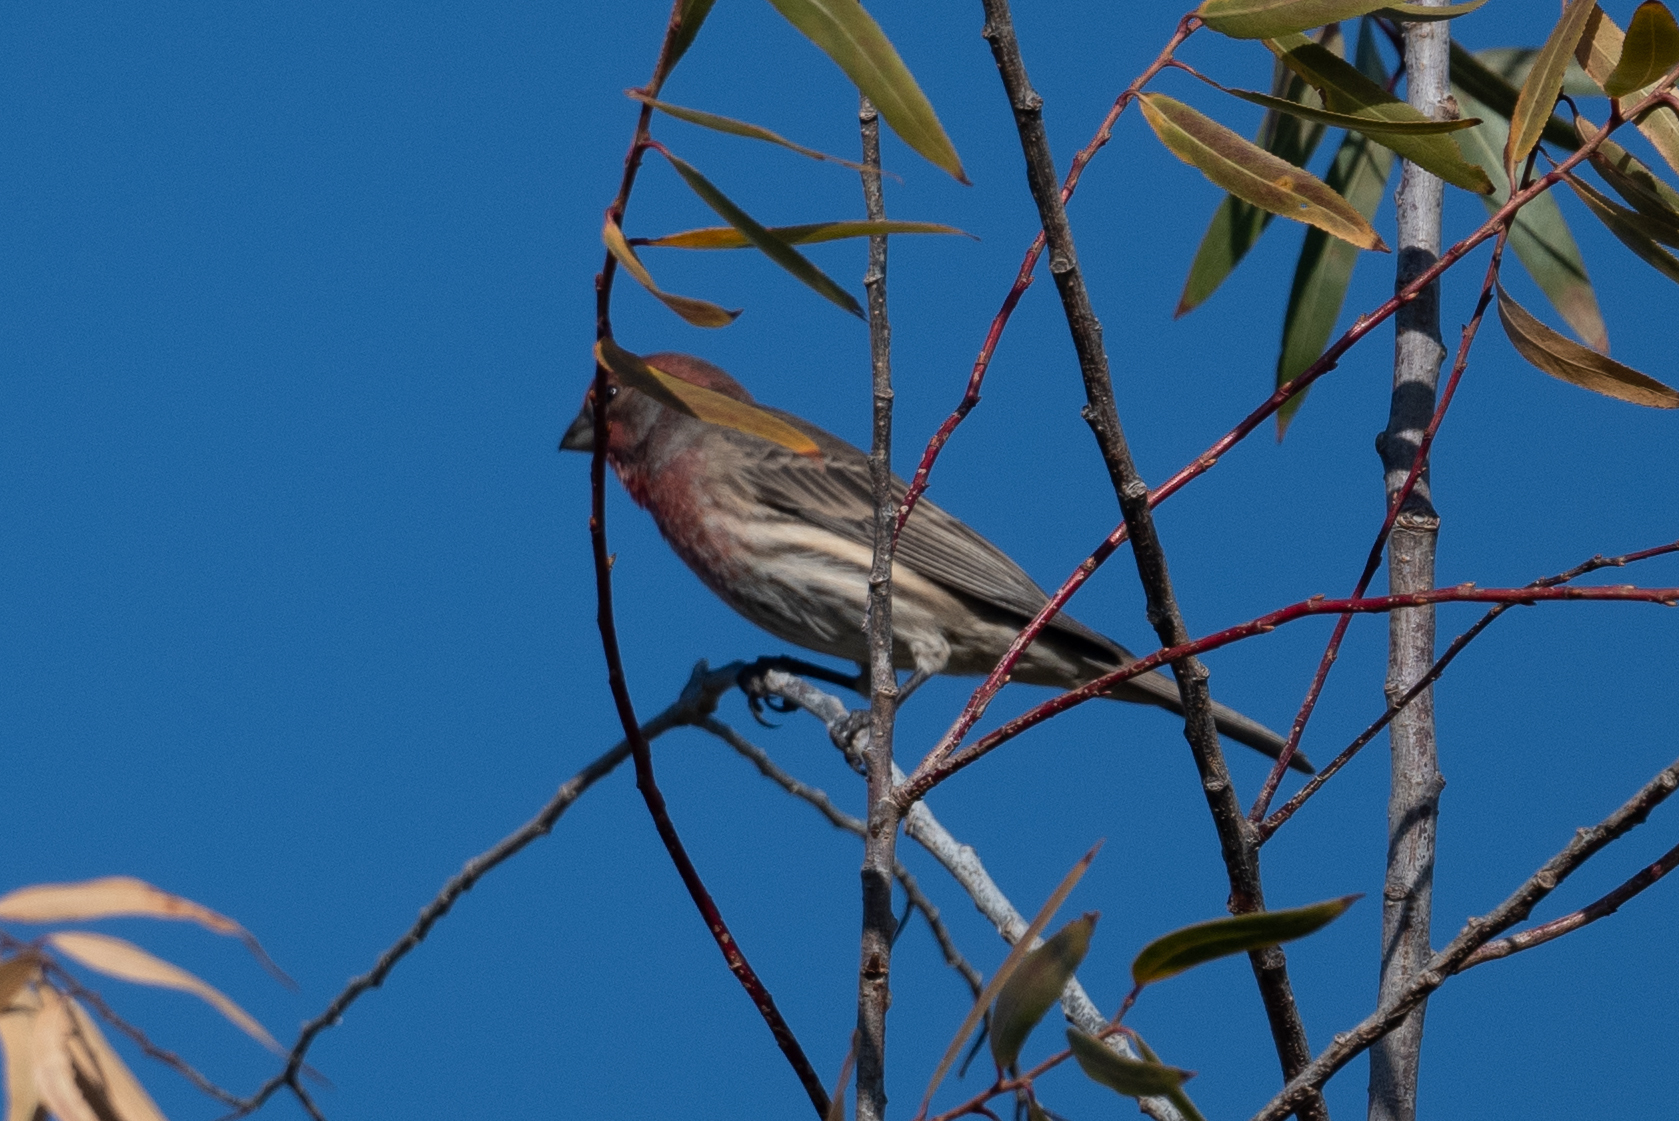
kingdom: Animalia
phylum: Chordata
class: Aves
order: Passeriformes
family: Fringillidae
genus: Haemorhous
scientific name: Haemorhous mexicanus
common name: House finch
